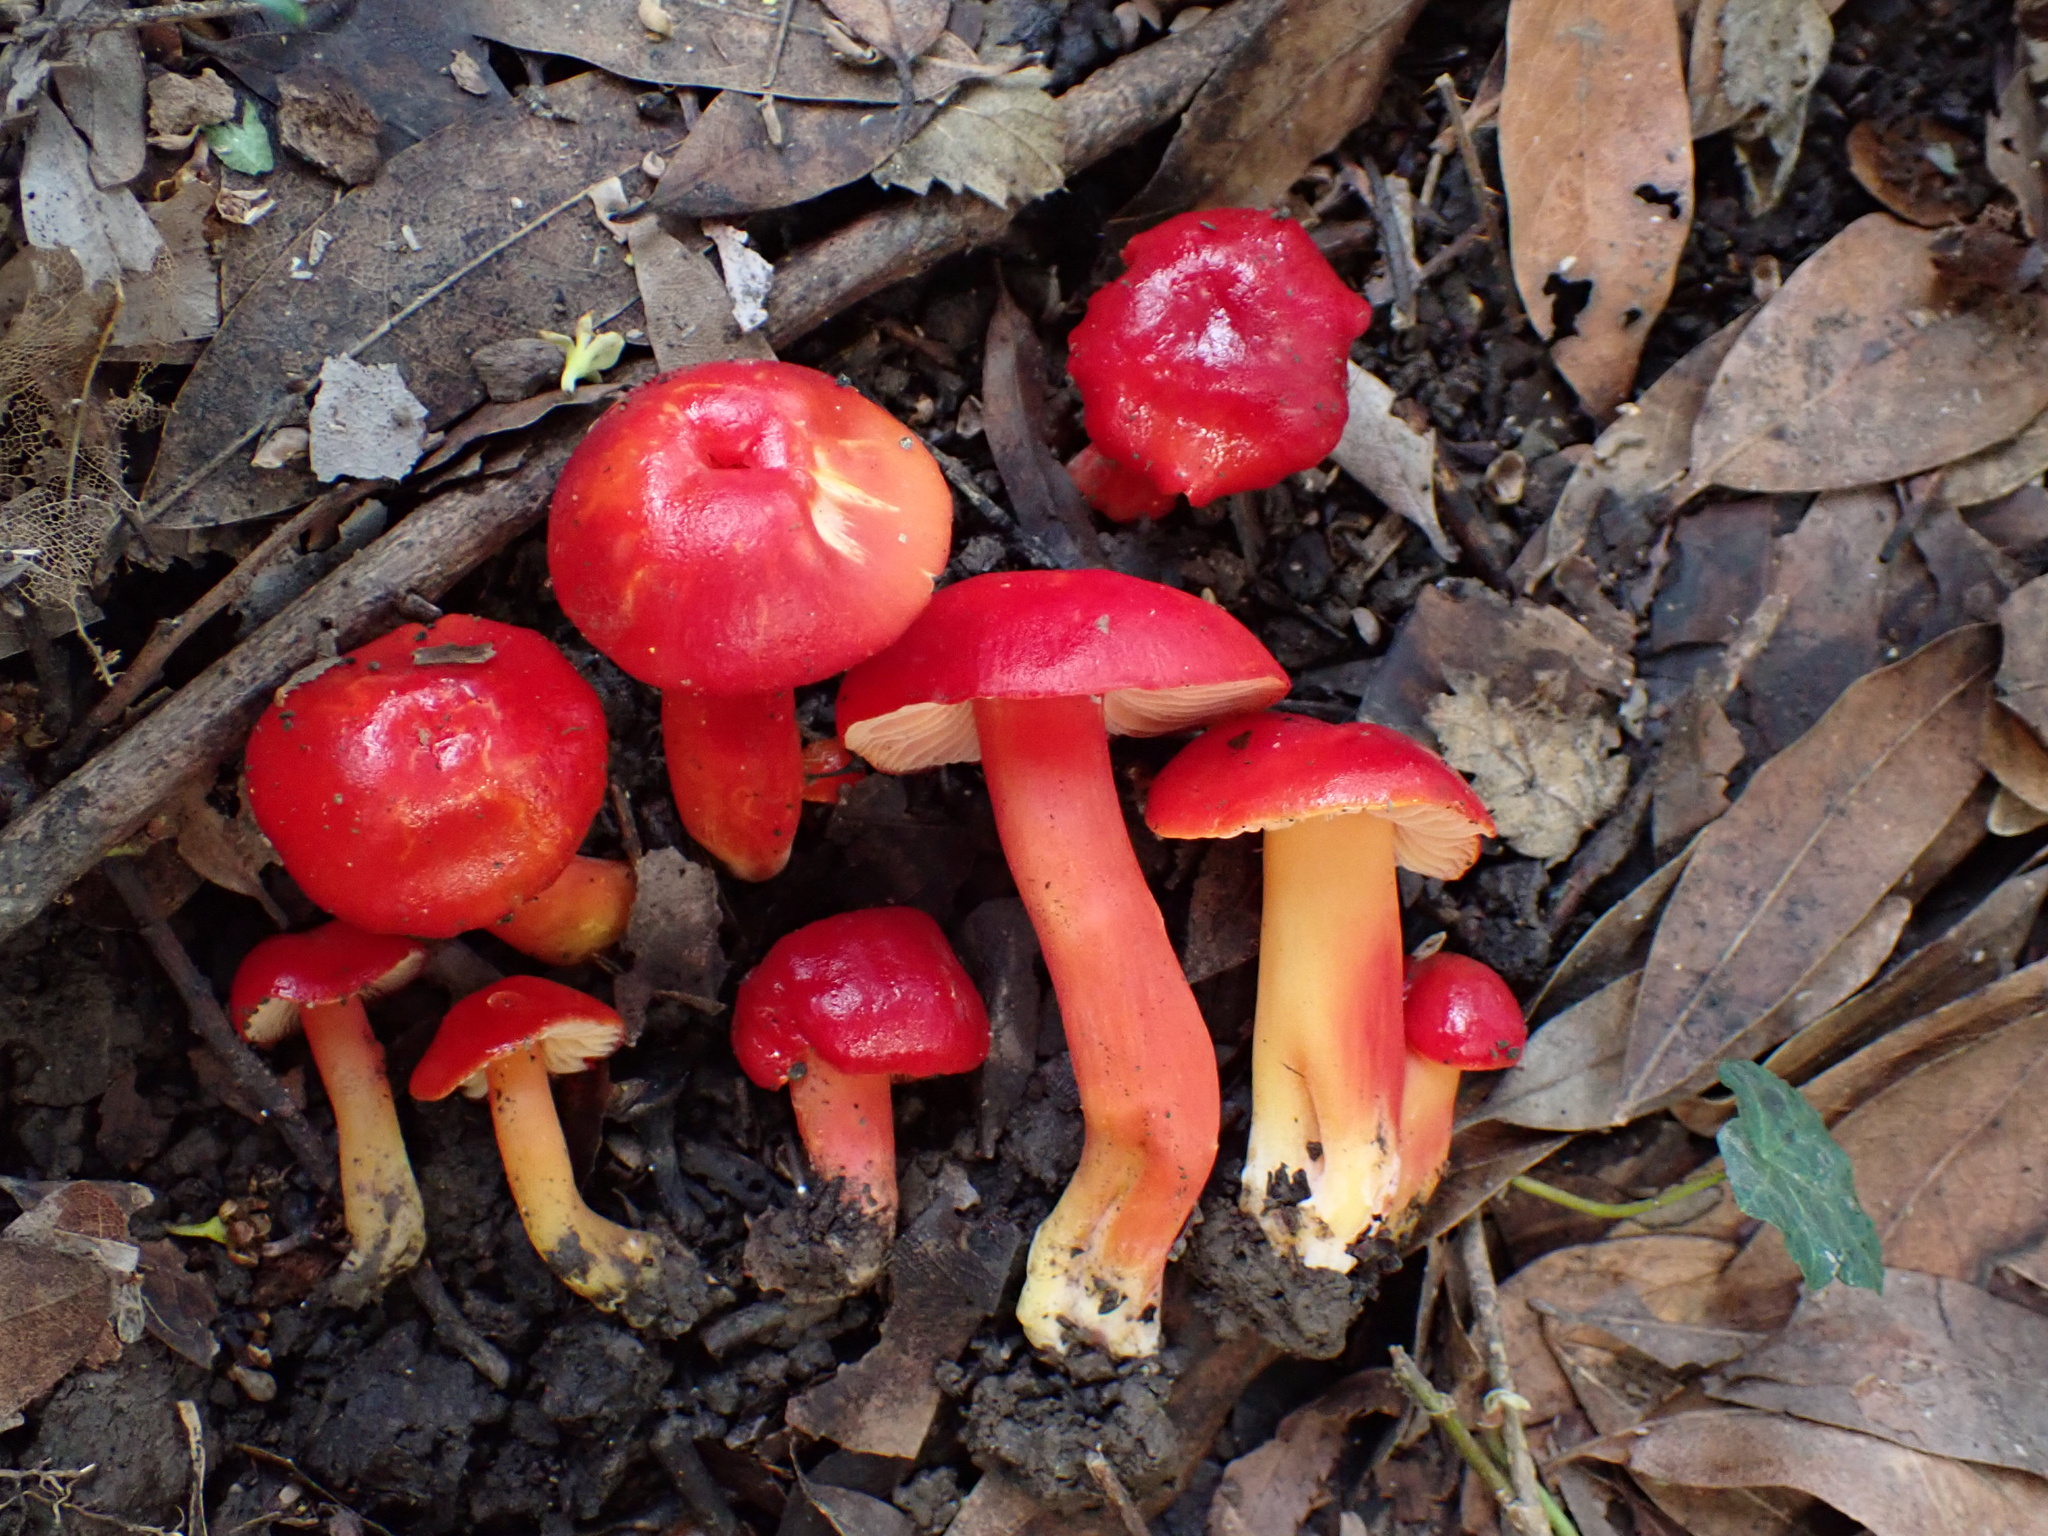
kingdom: Fungi
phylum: Basidiomycota
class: Agaricomycetes
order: Agaricales
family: Hygrophoraceae
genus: Hygrocybe
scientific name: Hygrocybe coccinea
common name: Scarlet hood
